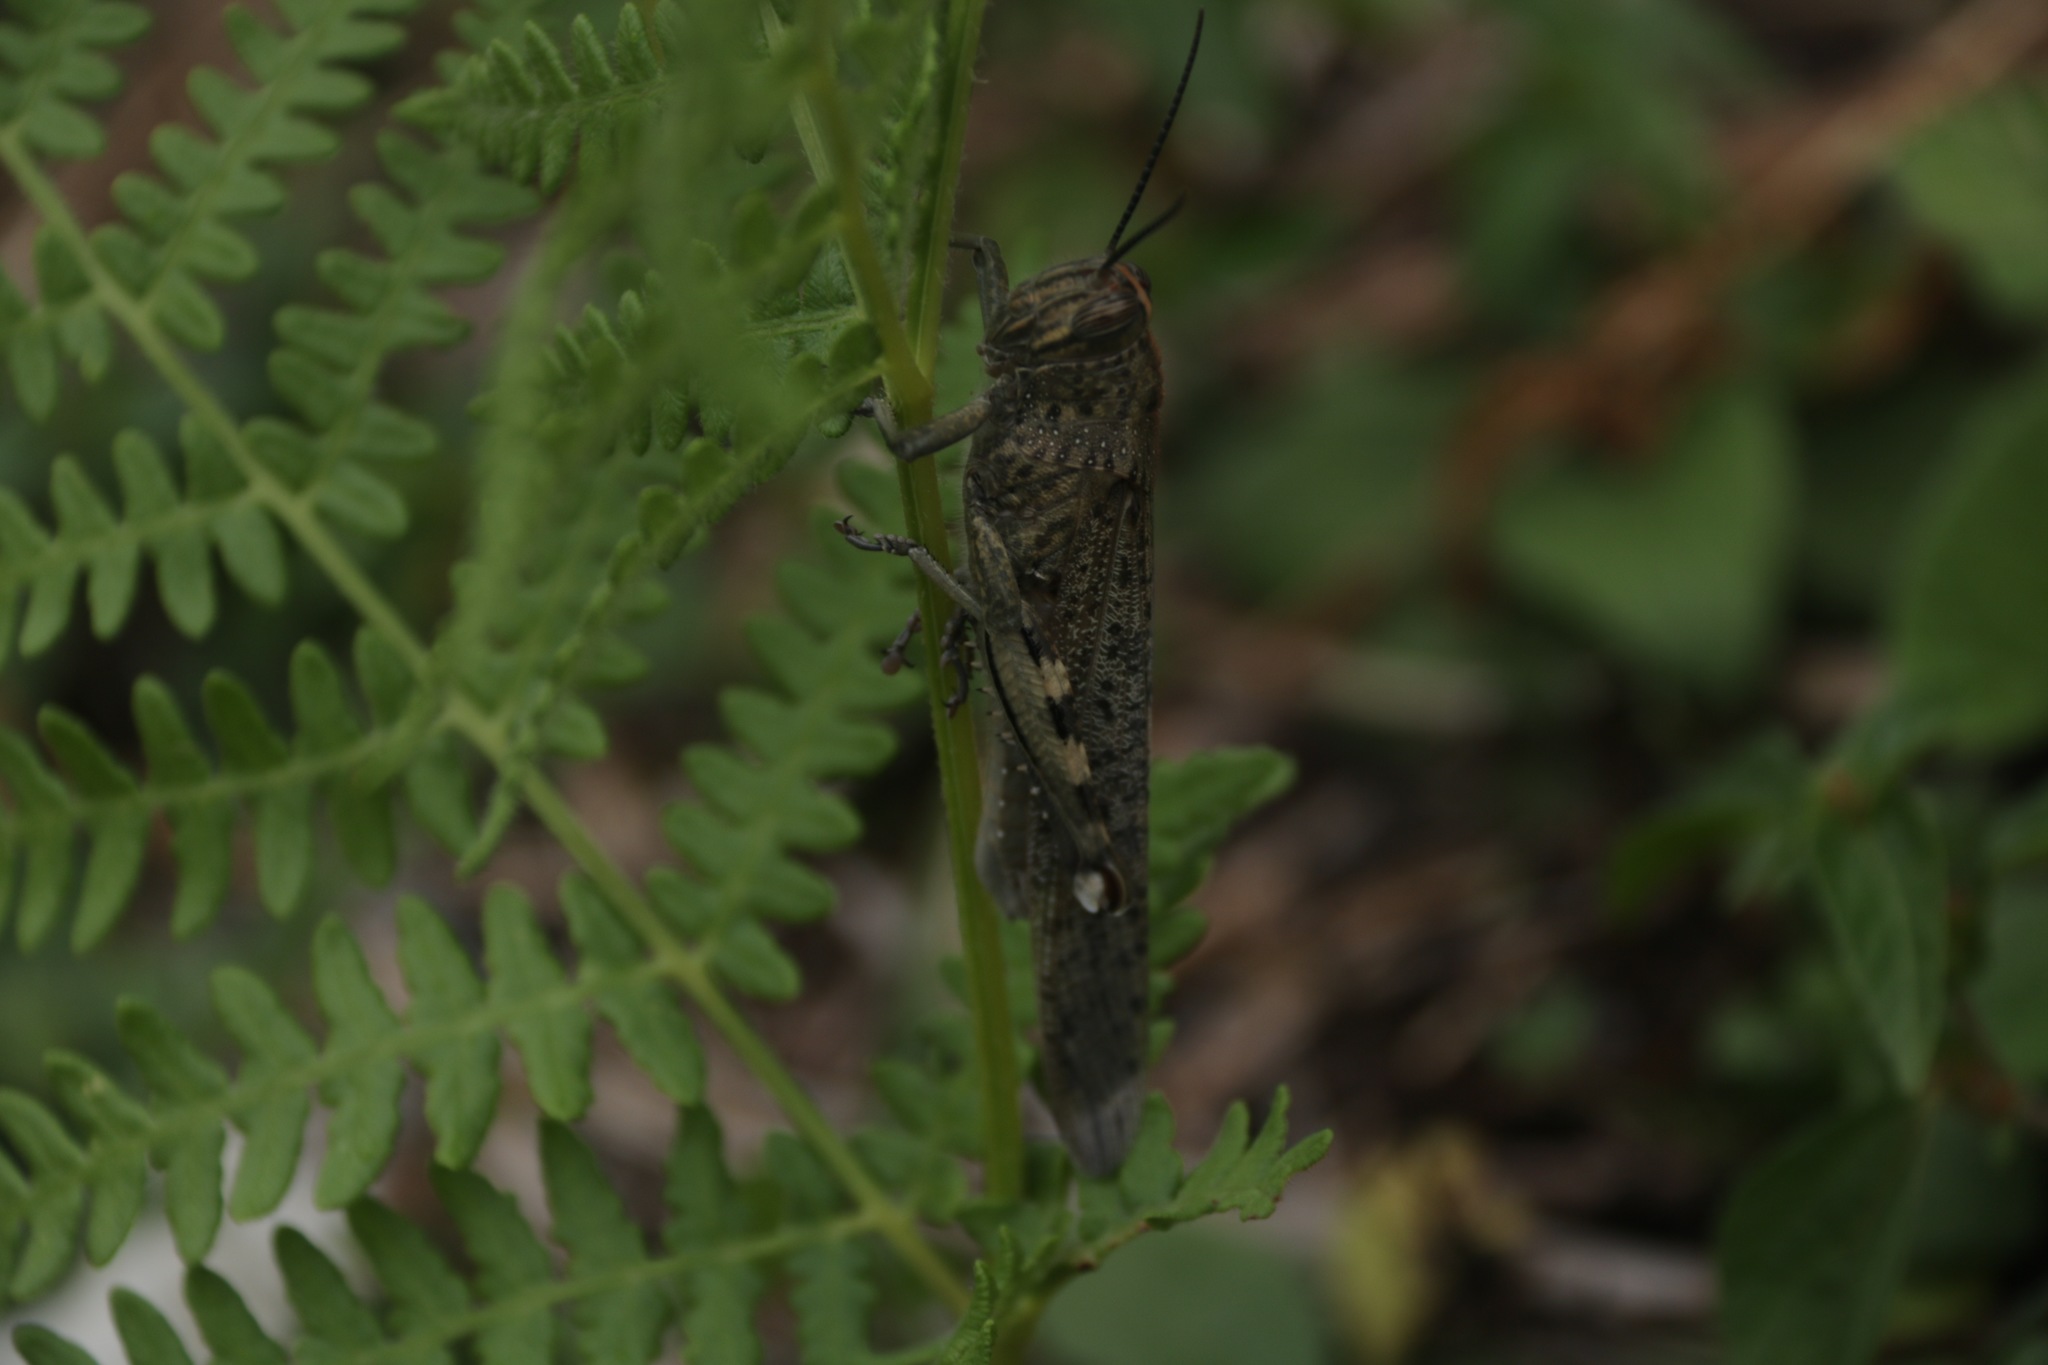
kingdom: Animalia
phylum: Arthropoda
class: Insecta
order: Orthoptera
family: Acrididae
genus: Anacridium
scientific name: Anacridium aegyptium
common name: Egyptian grasshopper
